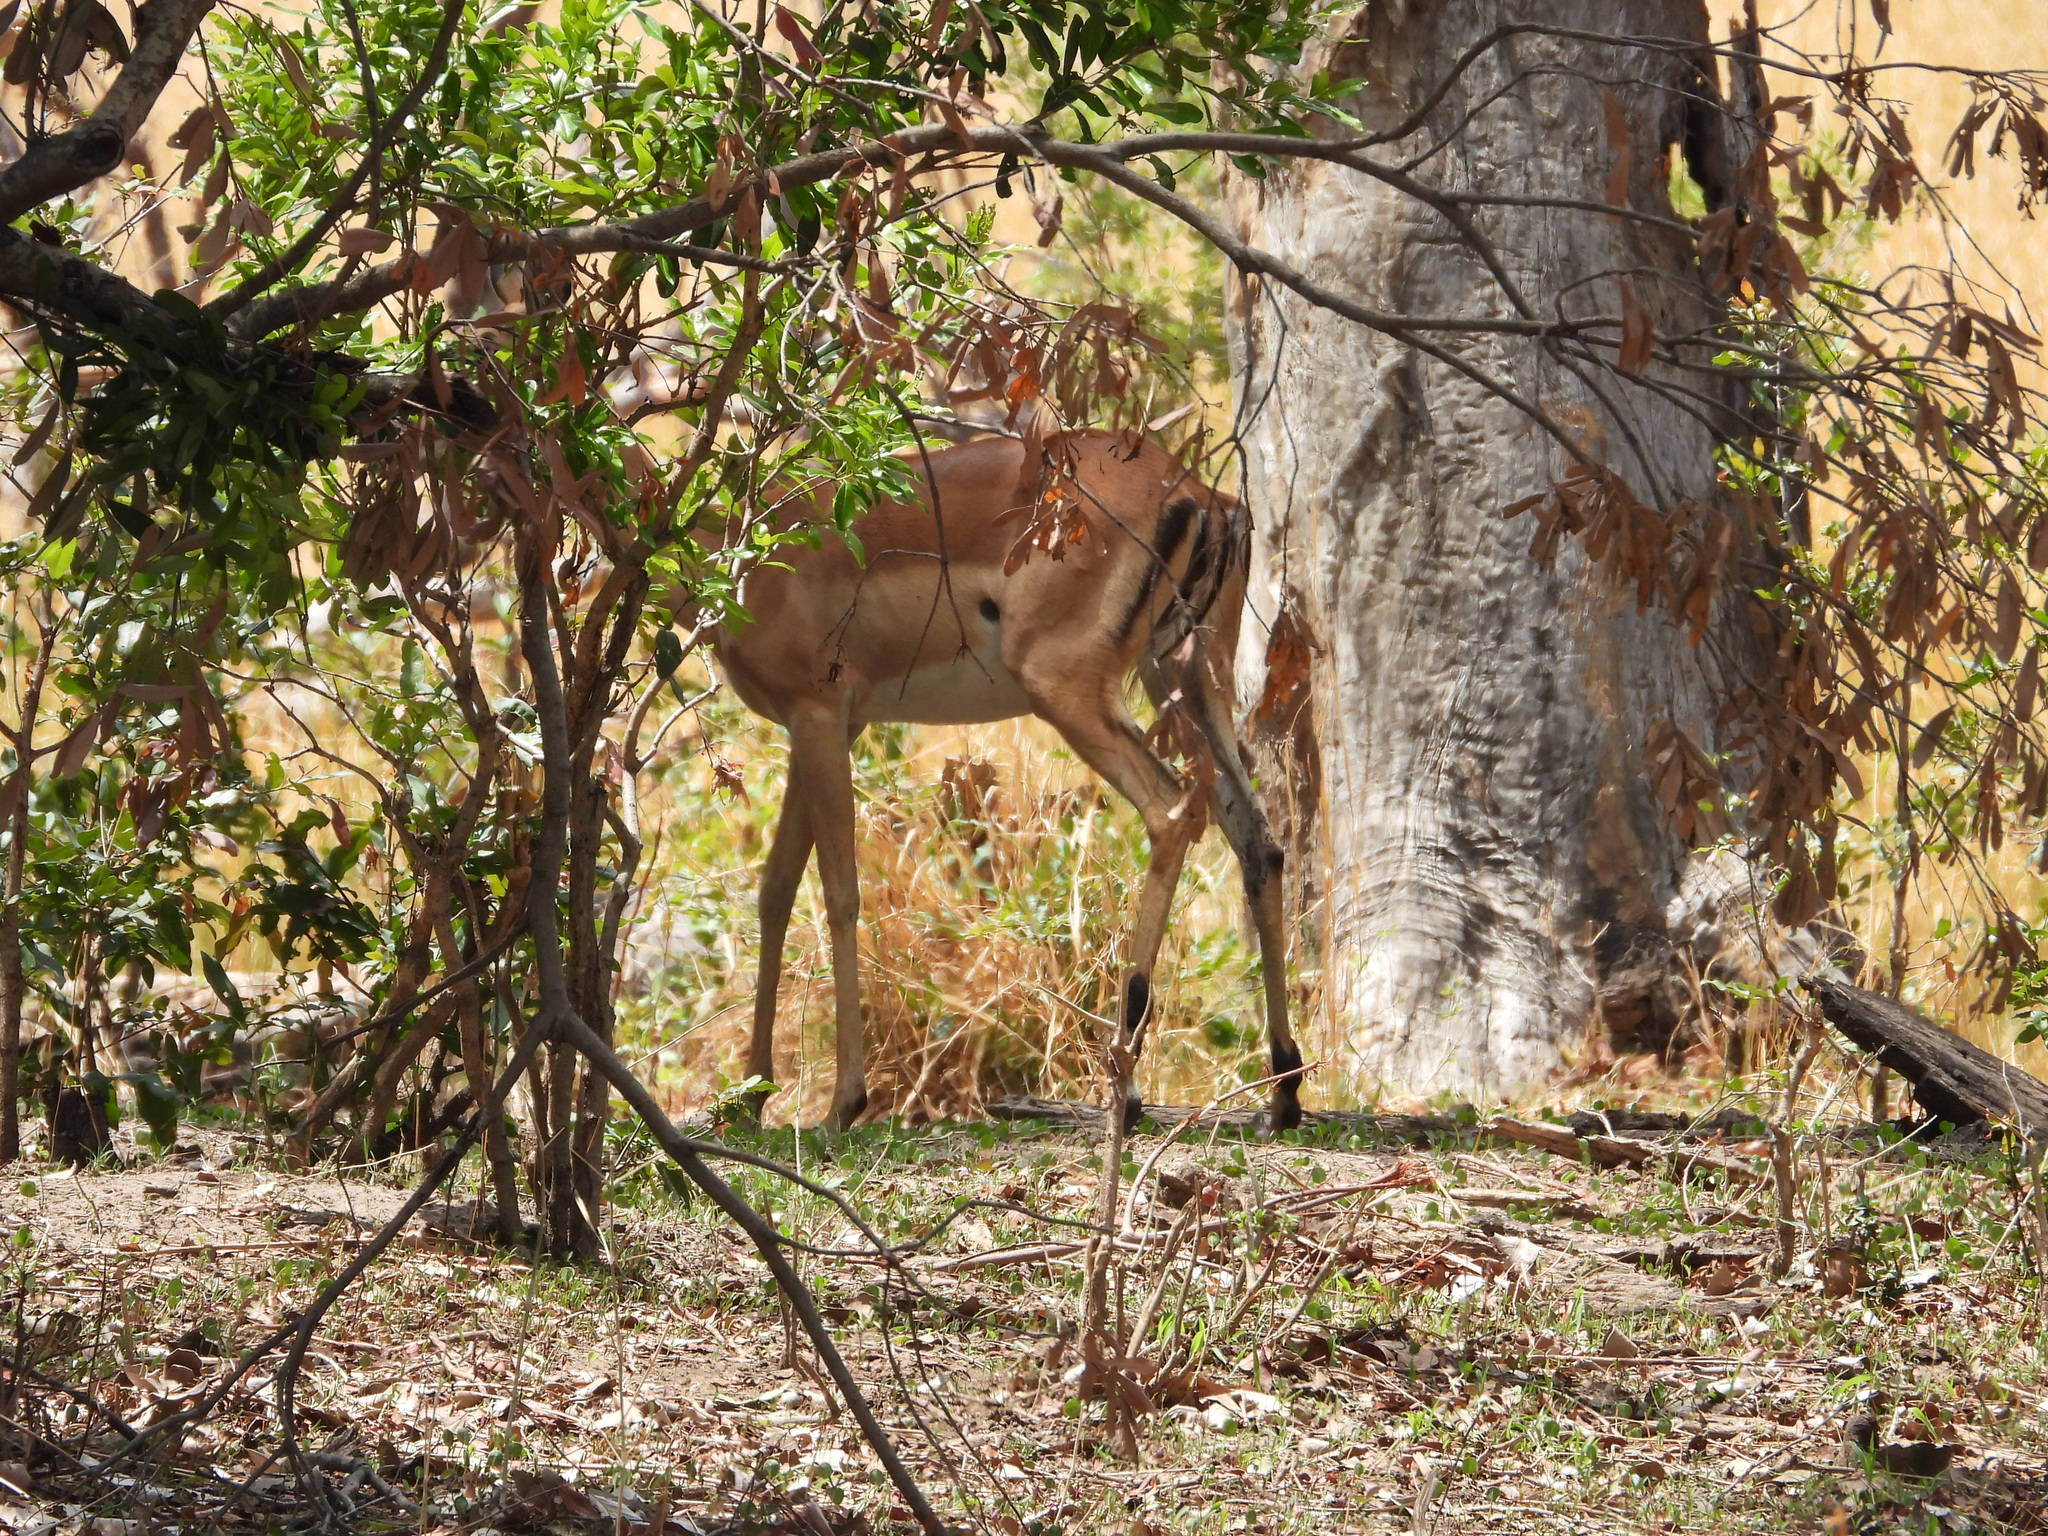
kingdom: Animalia
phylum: Chordata
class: Mammalia
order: Artiodactyla
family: Bovidae
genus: Aepyceros
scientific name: Aepyceros melampus
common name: Impala
